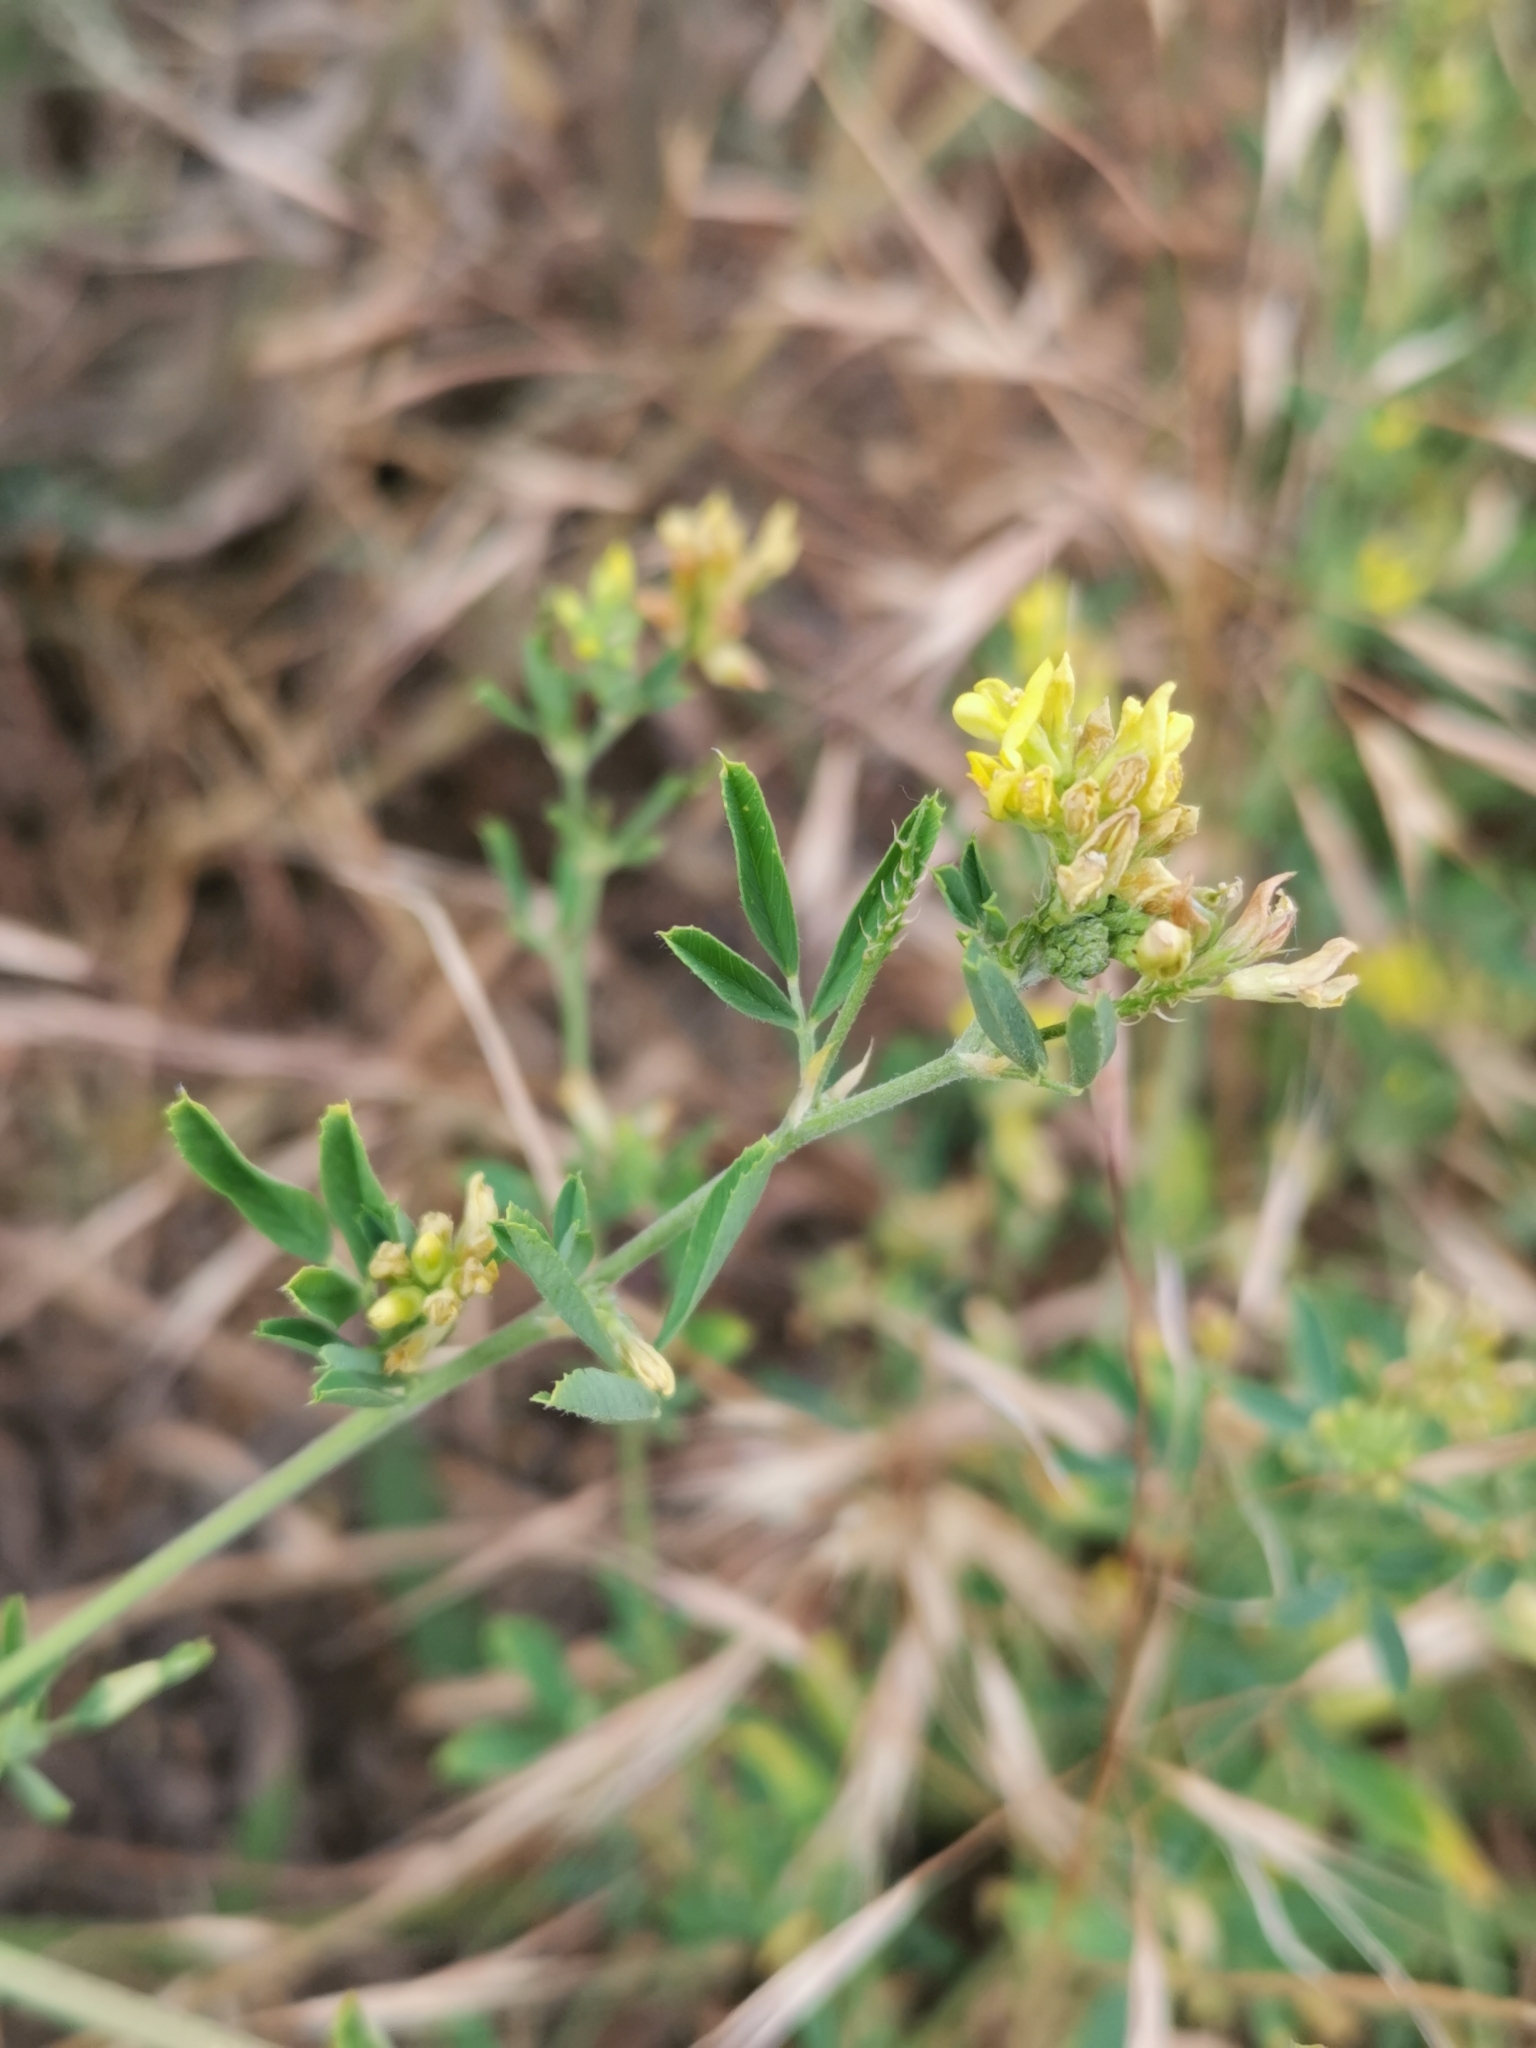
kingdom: Plantae
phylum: Tracheophyta
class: Magnoliopsida
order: Fabales
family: Fabaceae
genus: Medicago
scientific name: Medicago falcata
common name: Sickle medick
